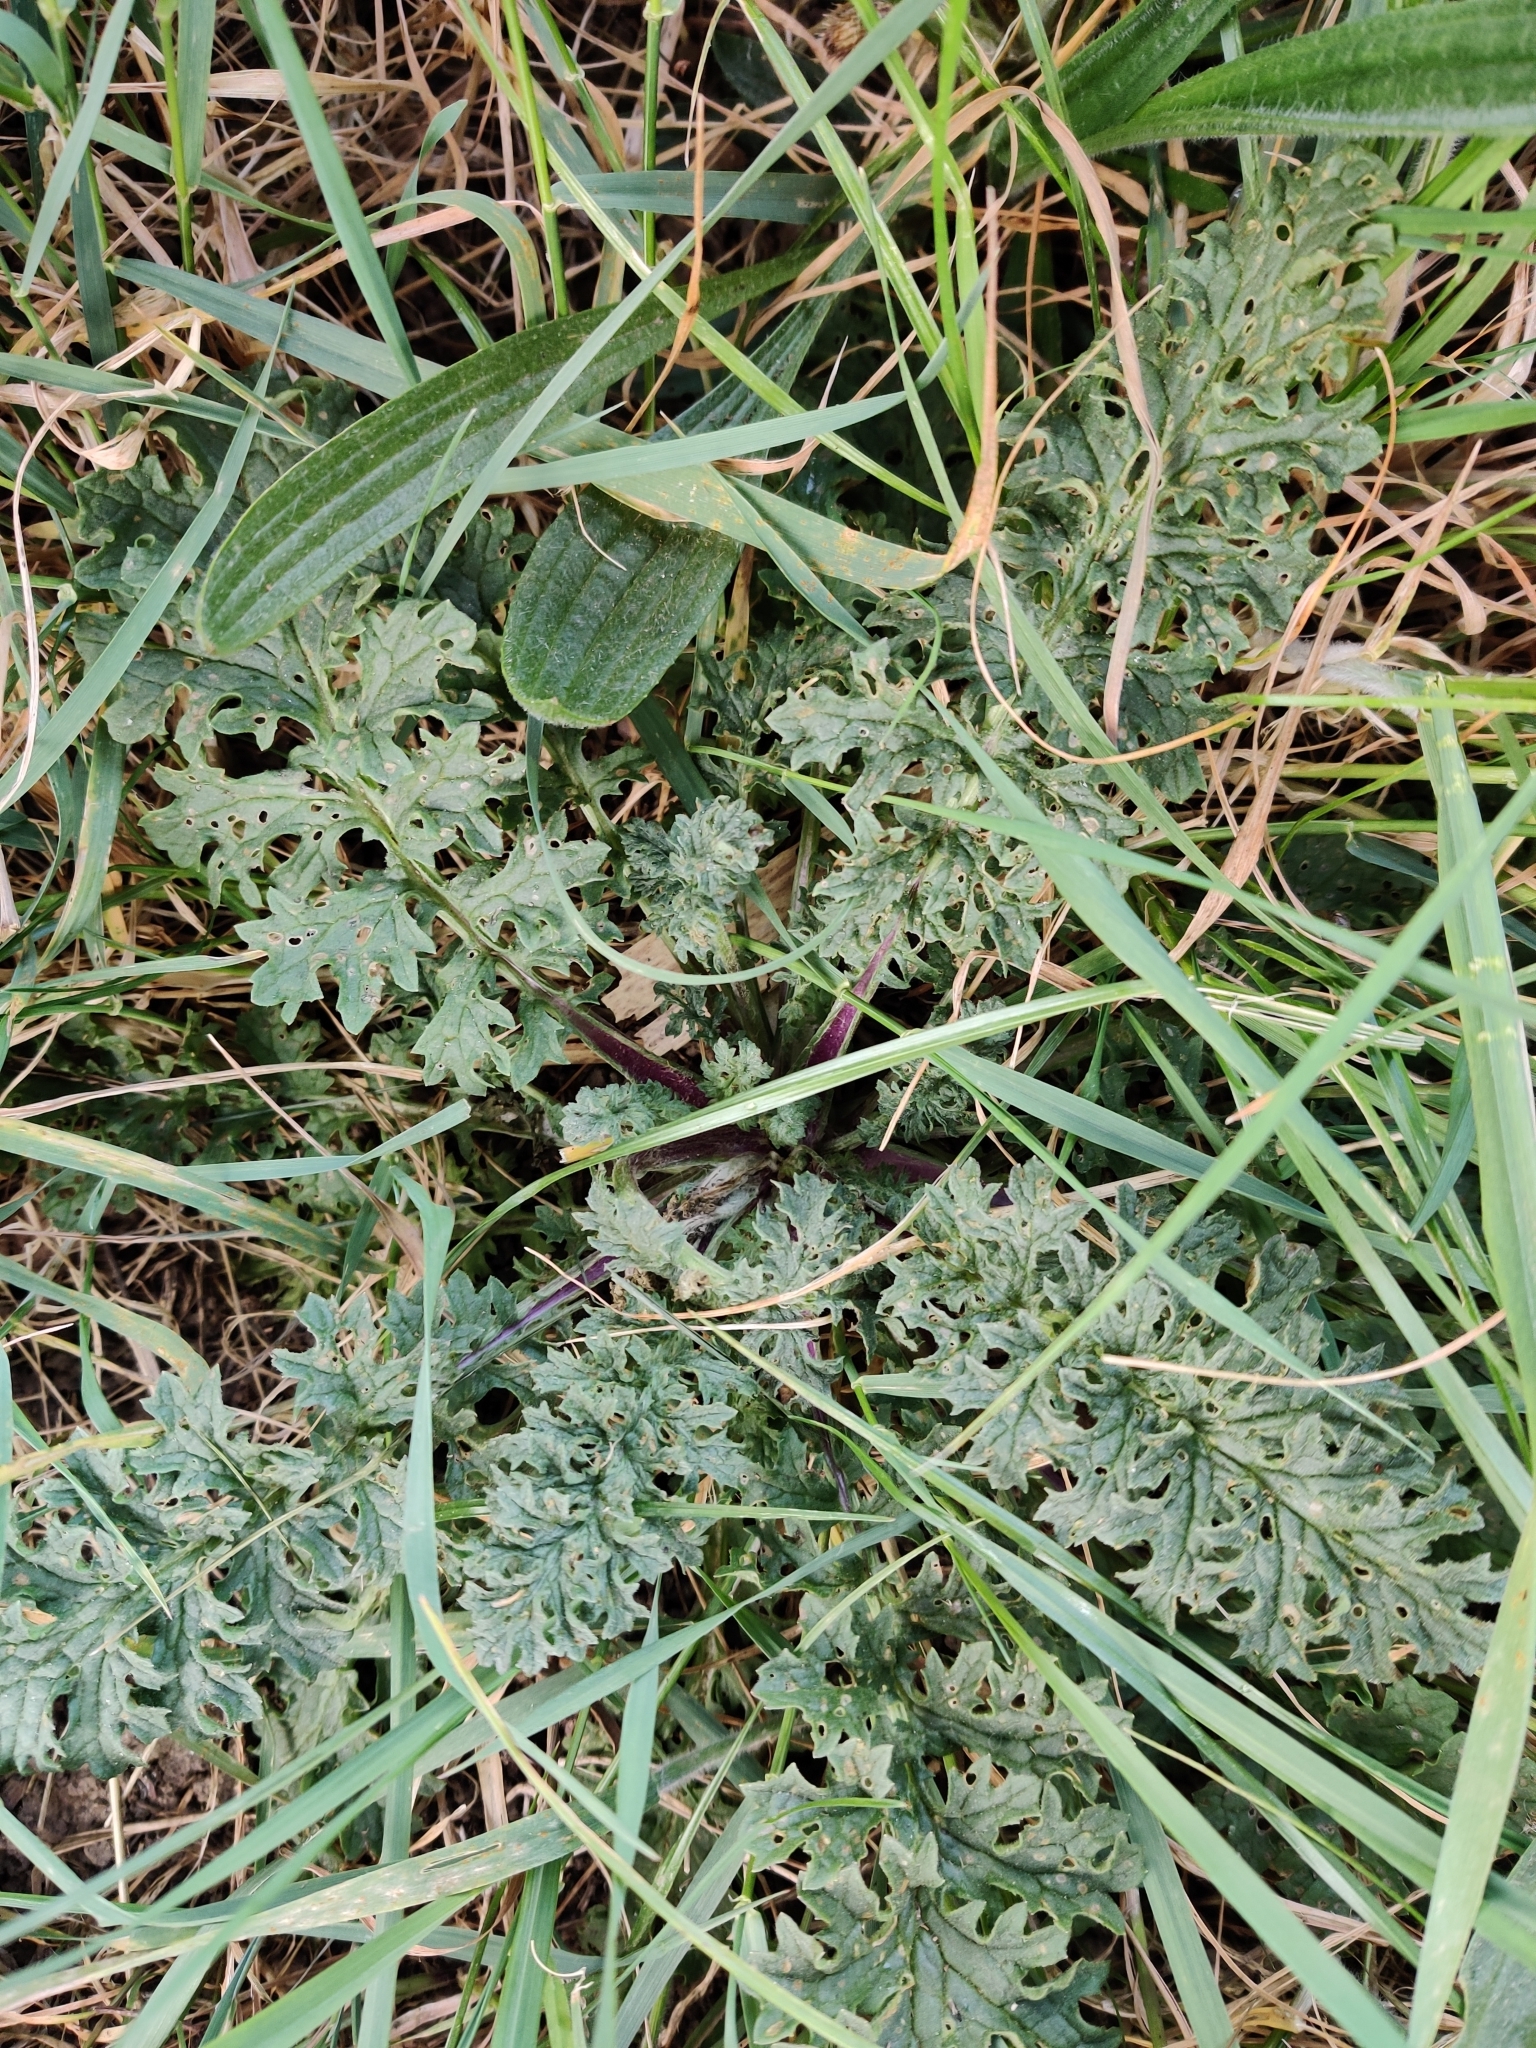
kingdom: Plantae
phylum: Tracheophyta
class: Magnoliopsida
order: Asterales
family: Asteraceae
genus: Jacobaea
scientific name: Jacobaea vulgaris
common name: Stinking willie
